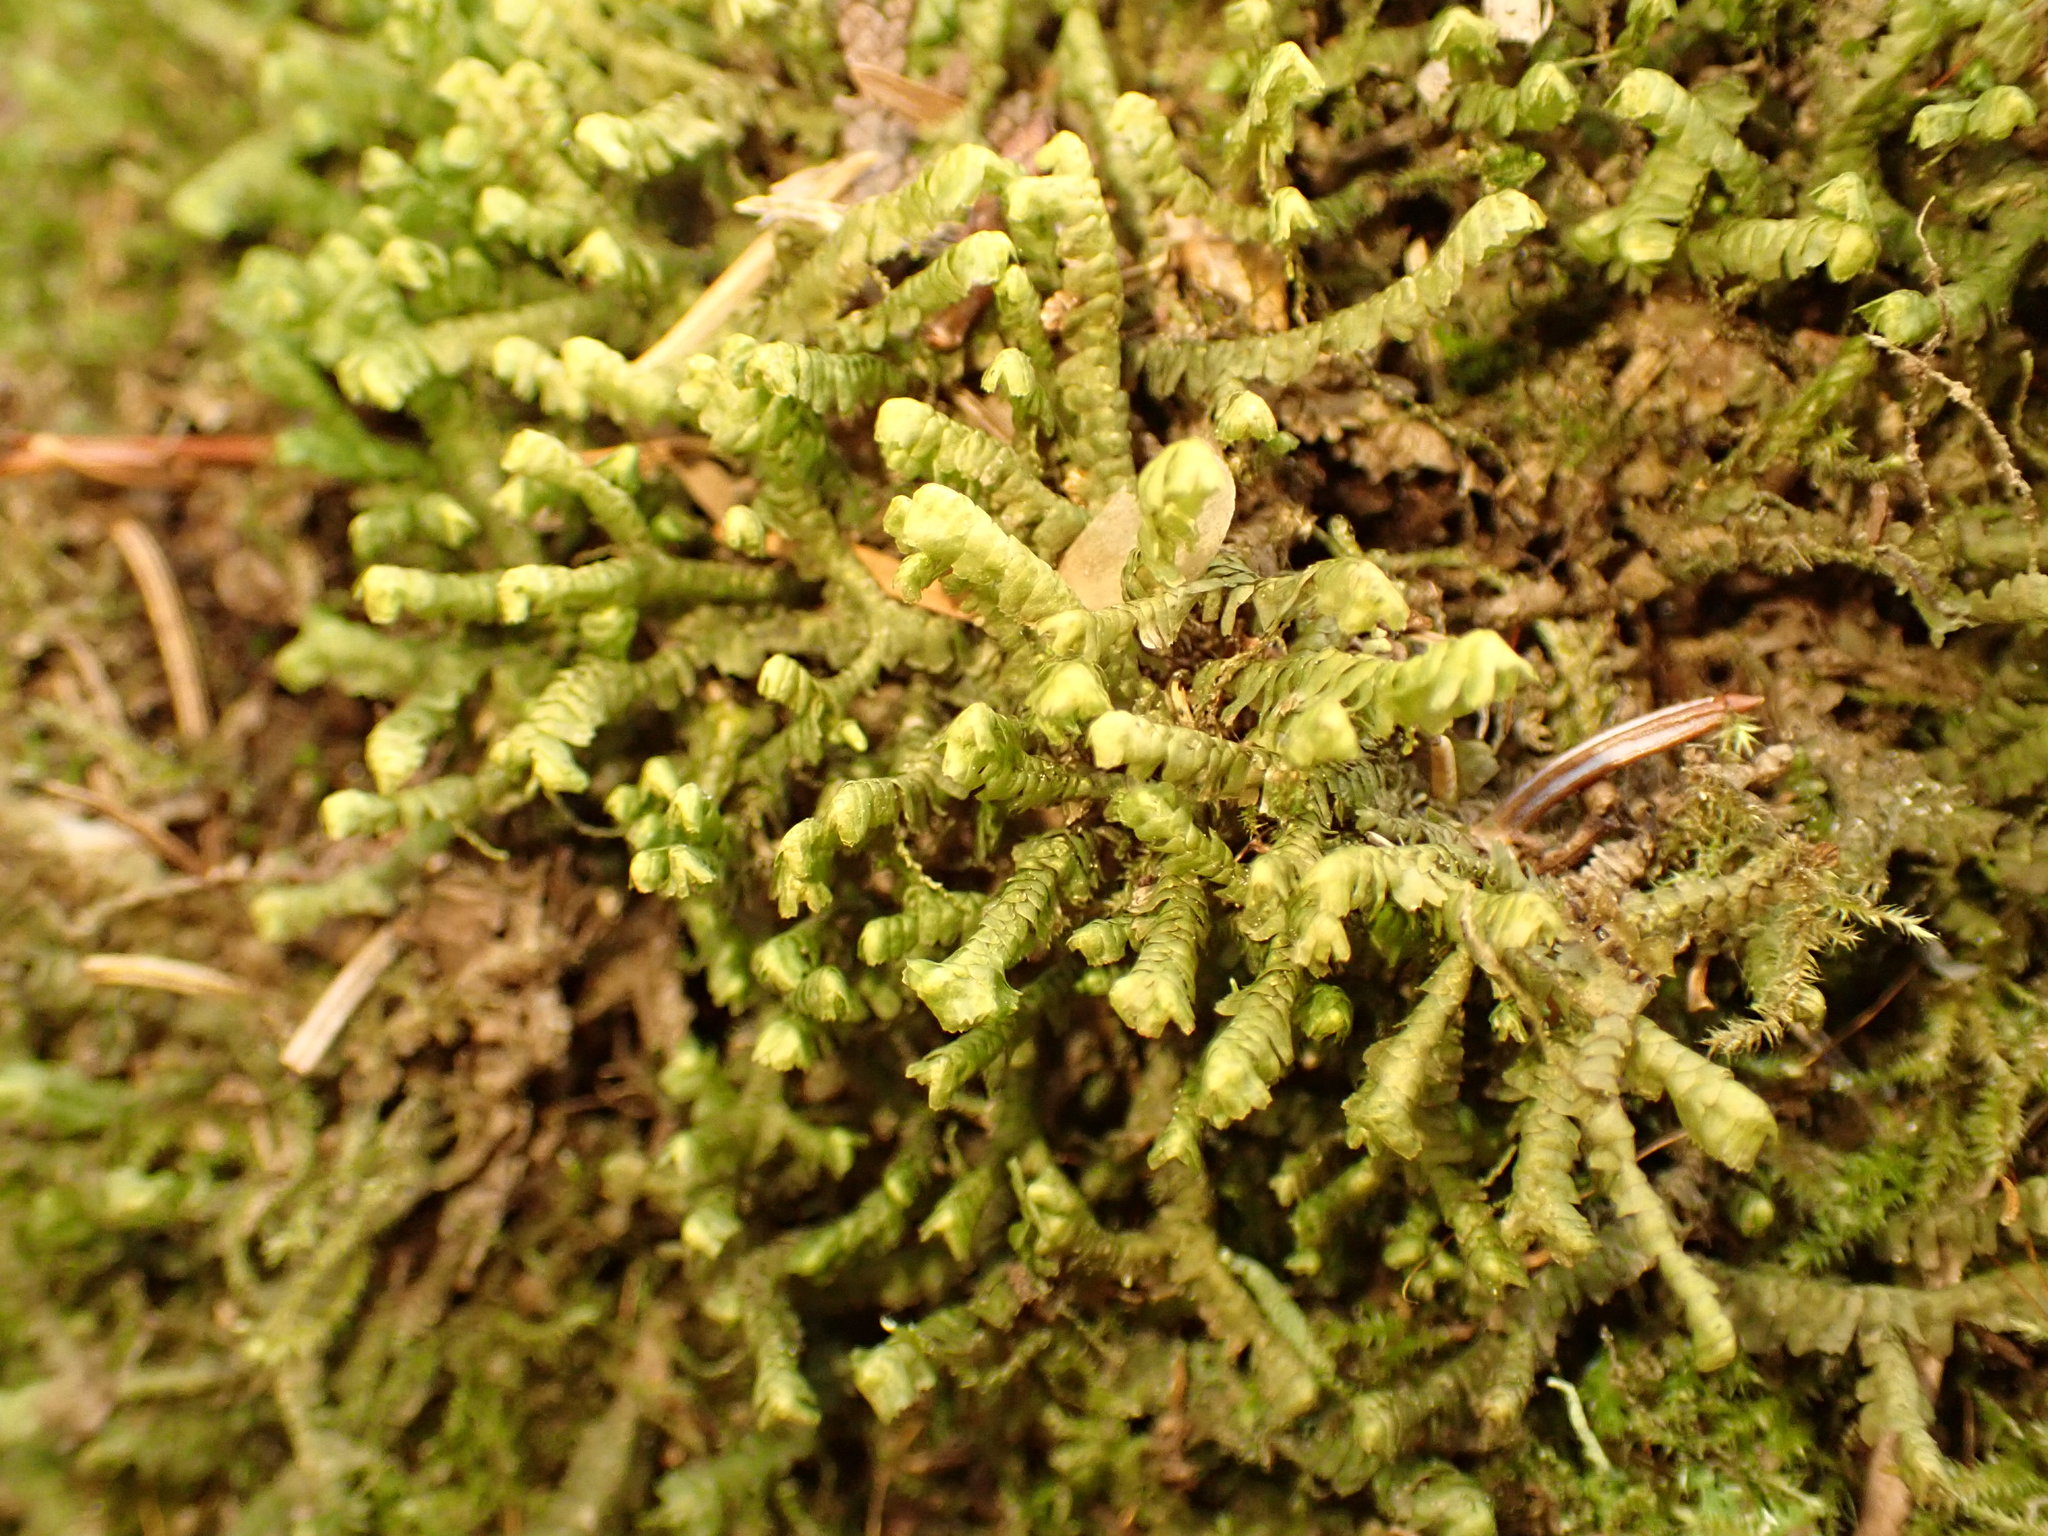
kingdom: Plantae
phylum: Marchantiophyta
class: Jungermanniopsida
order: Jungermanniales
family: Lepidoziaceae
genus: Bazzania
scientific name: Bazzania trilobata
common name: Three-lobed whipwort
